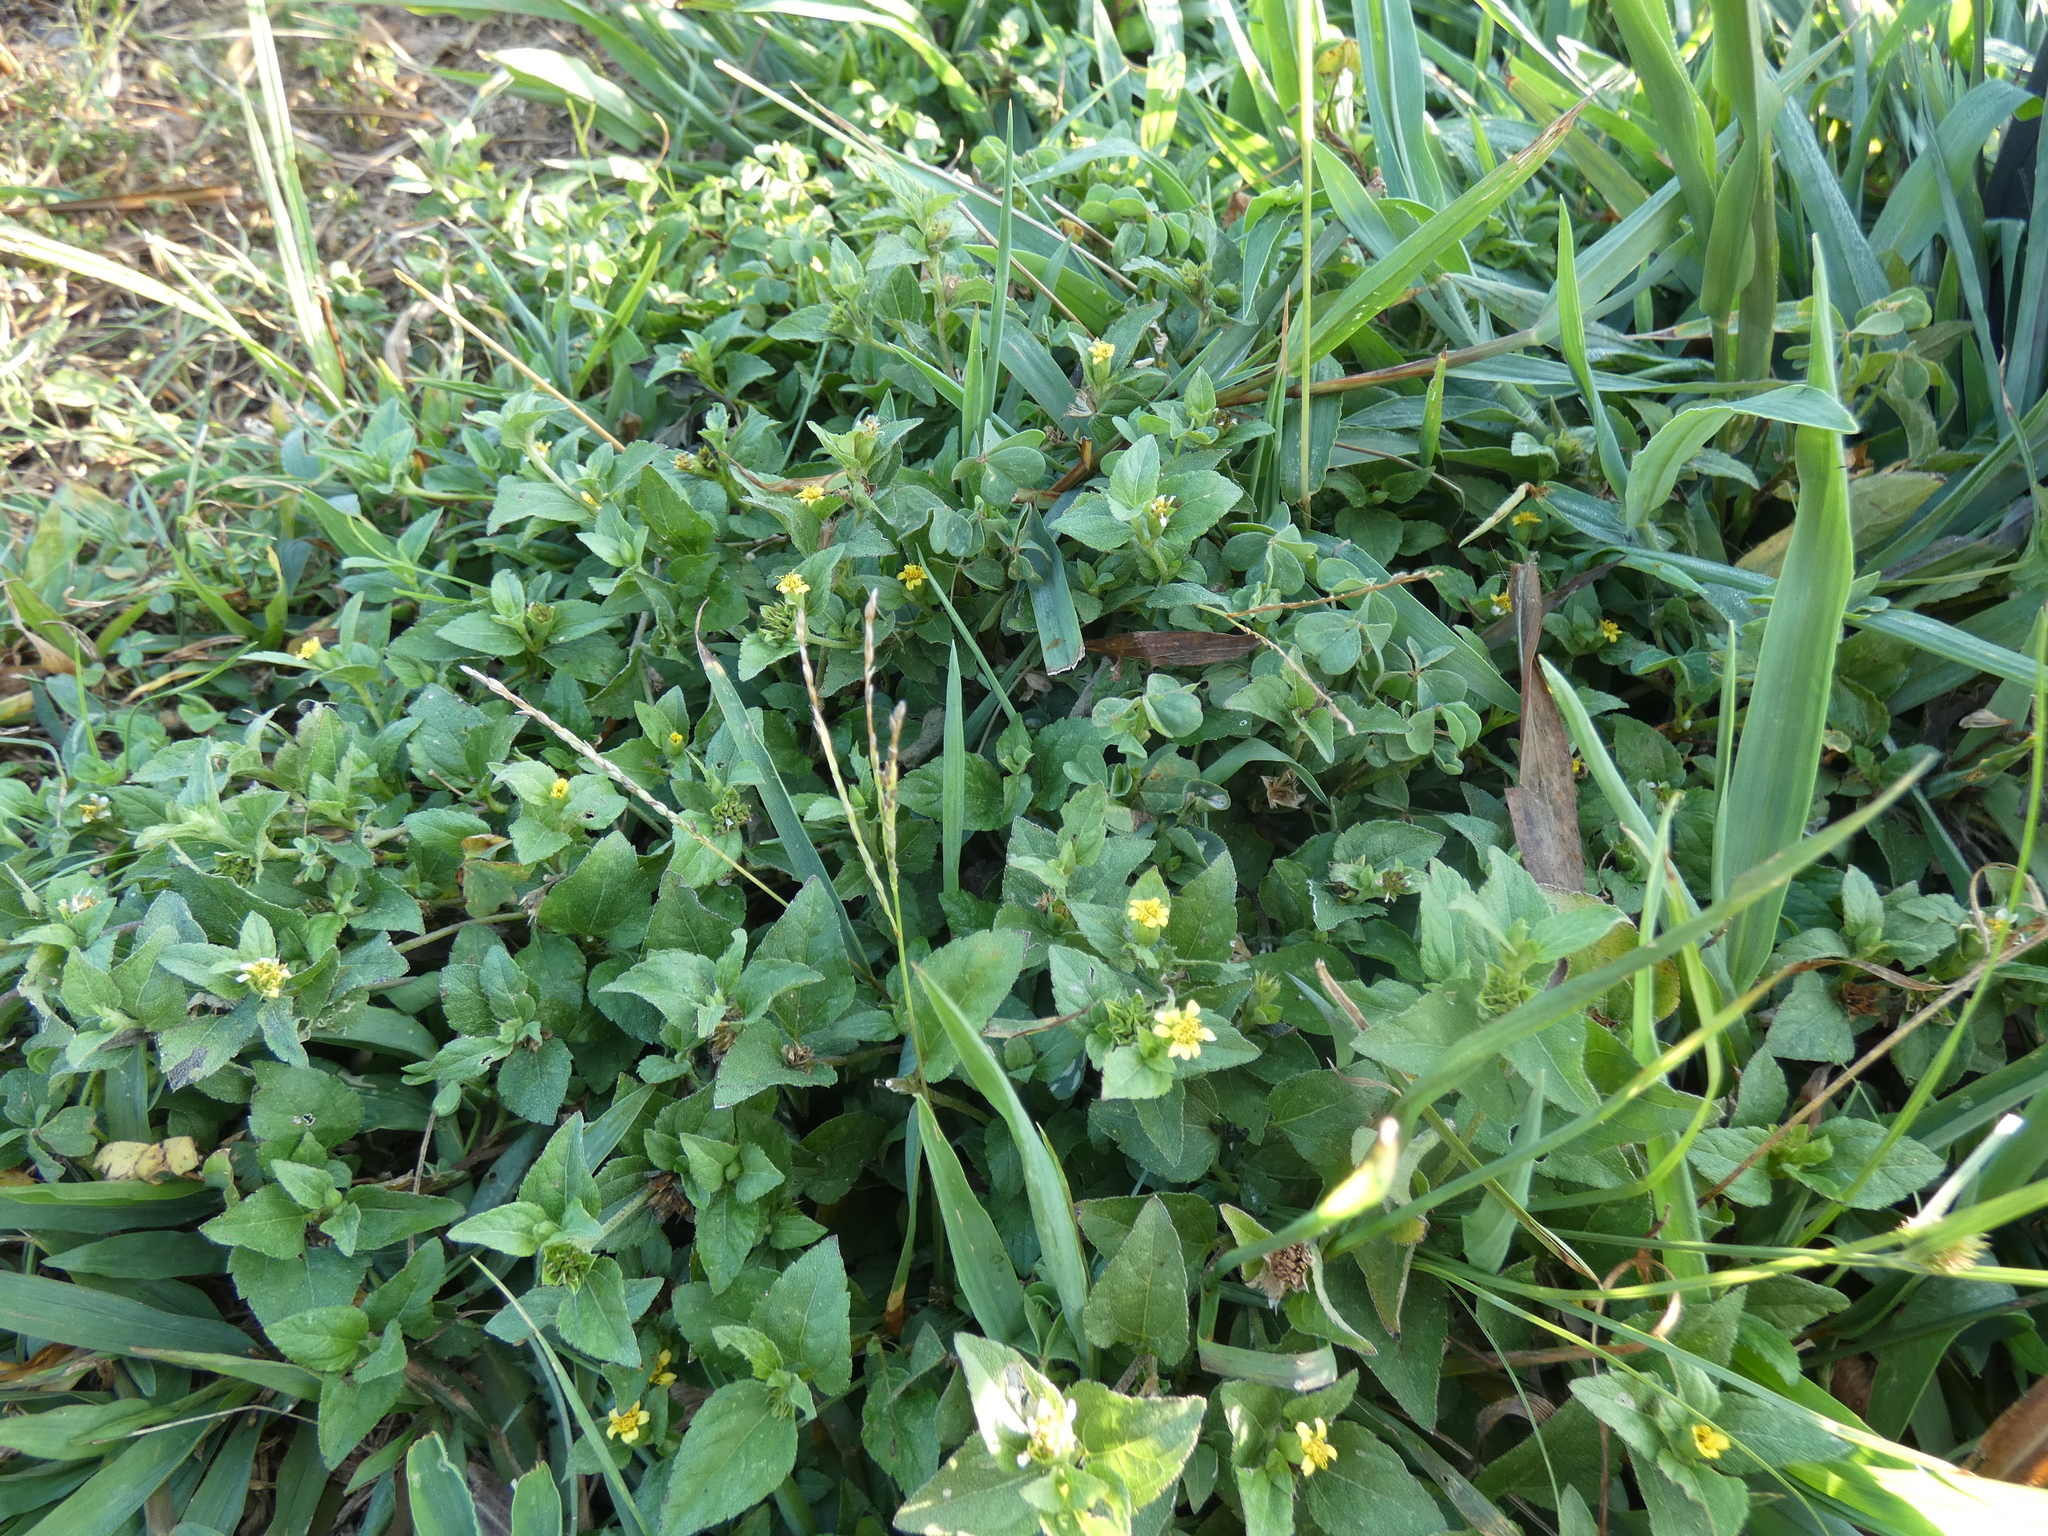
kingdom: Plantae
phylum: Tracheophyta
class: Magnoliopsida
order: Asterales
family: Asteraceae
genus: Calyptocarpus
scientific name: Calyptocarpus vialis
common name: Straggler daisy
